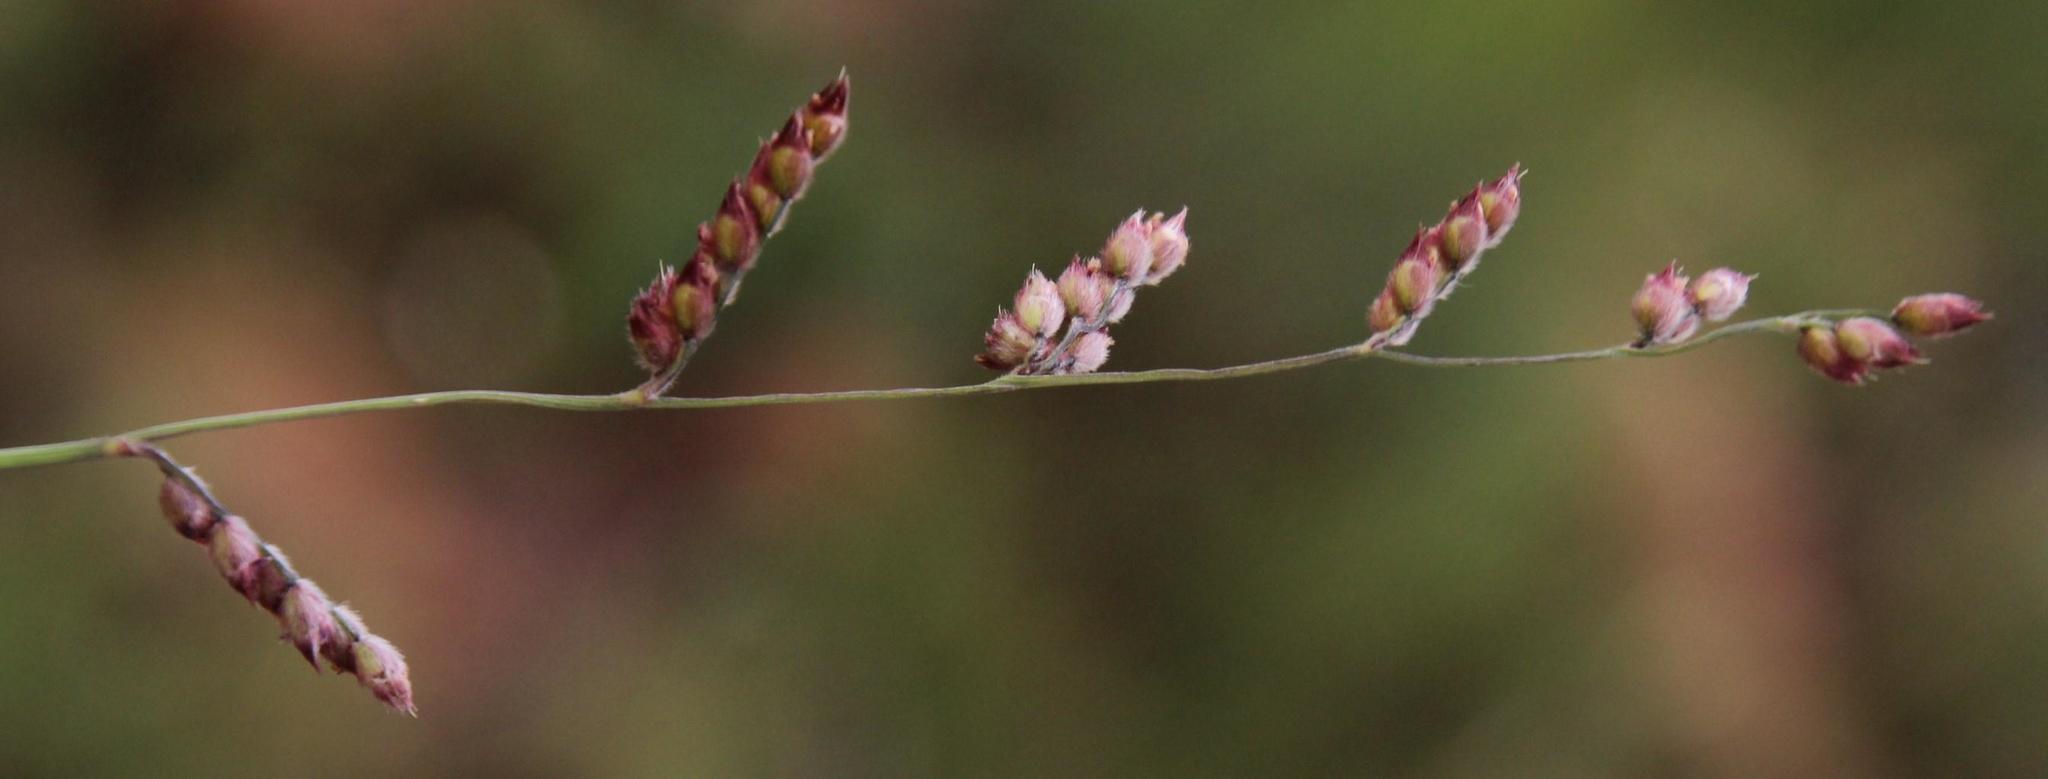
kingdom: Plantae
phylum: Tracheophyta
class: Liliopsida
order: Poales
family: Poaceae
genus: Urochloa
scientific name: Urochloa serrata
